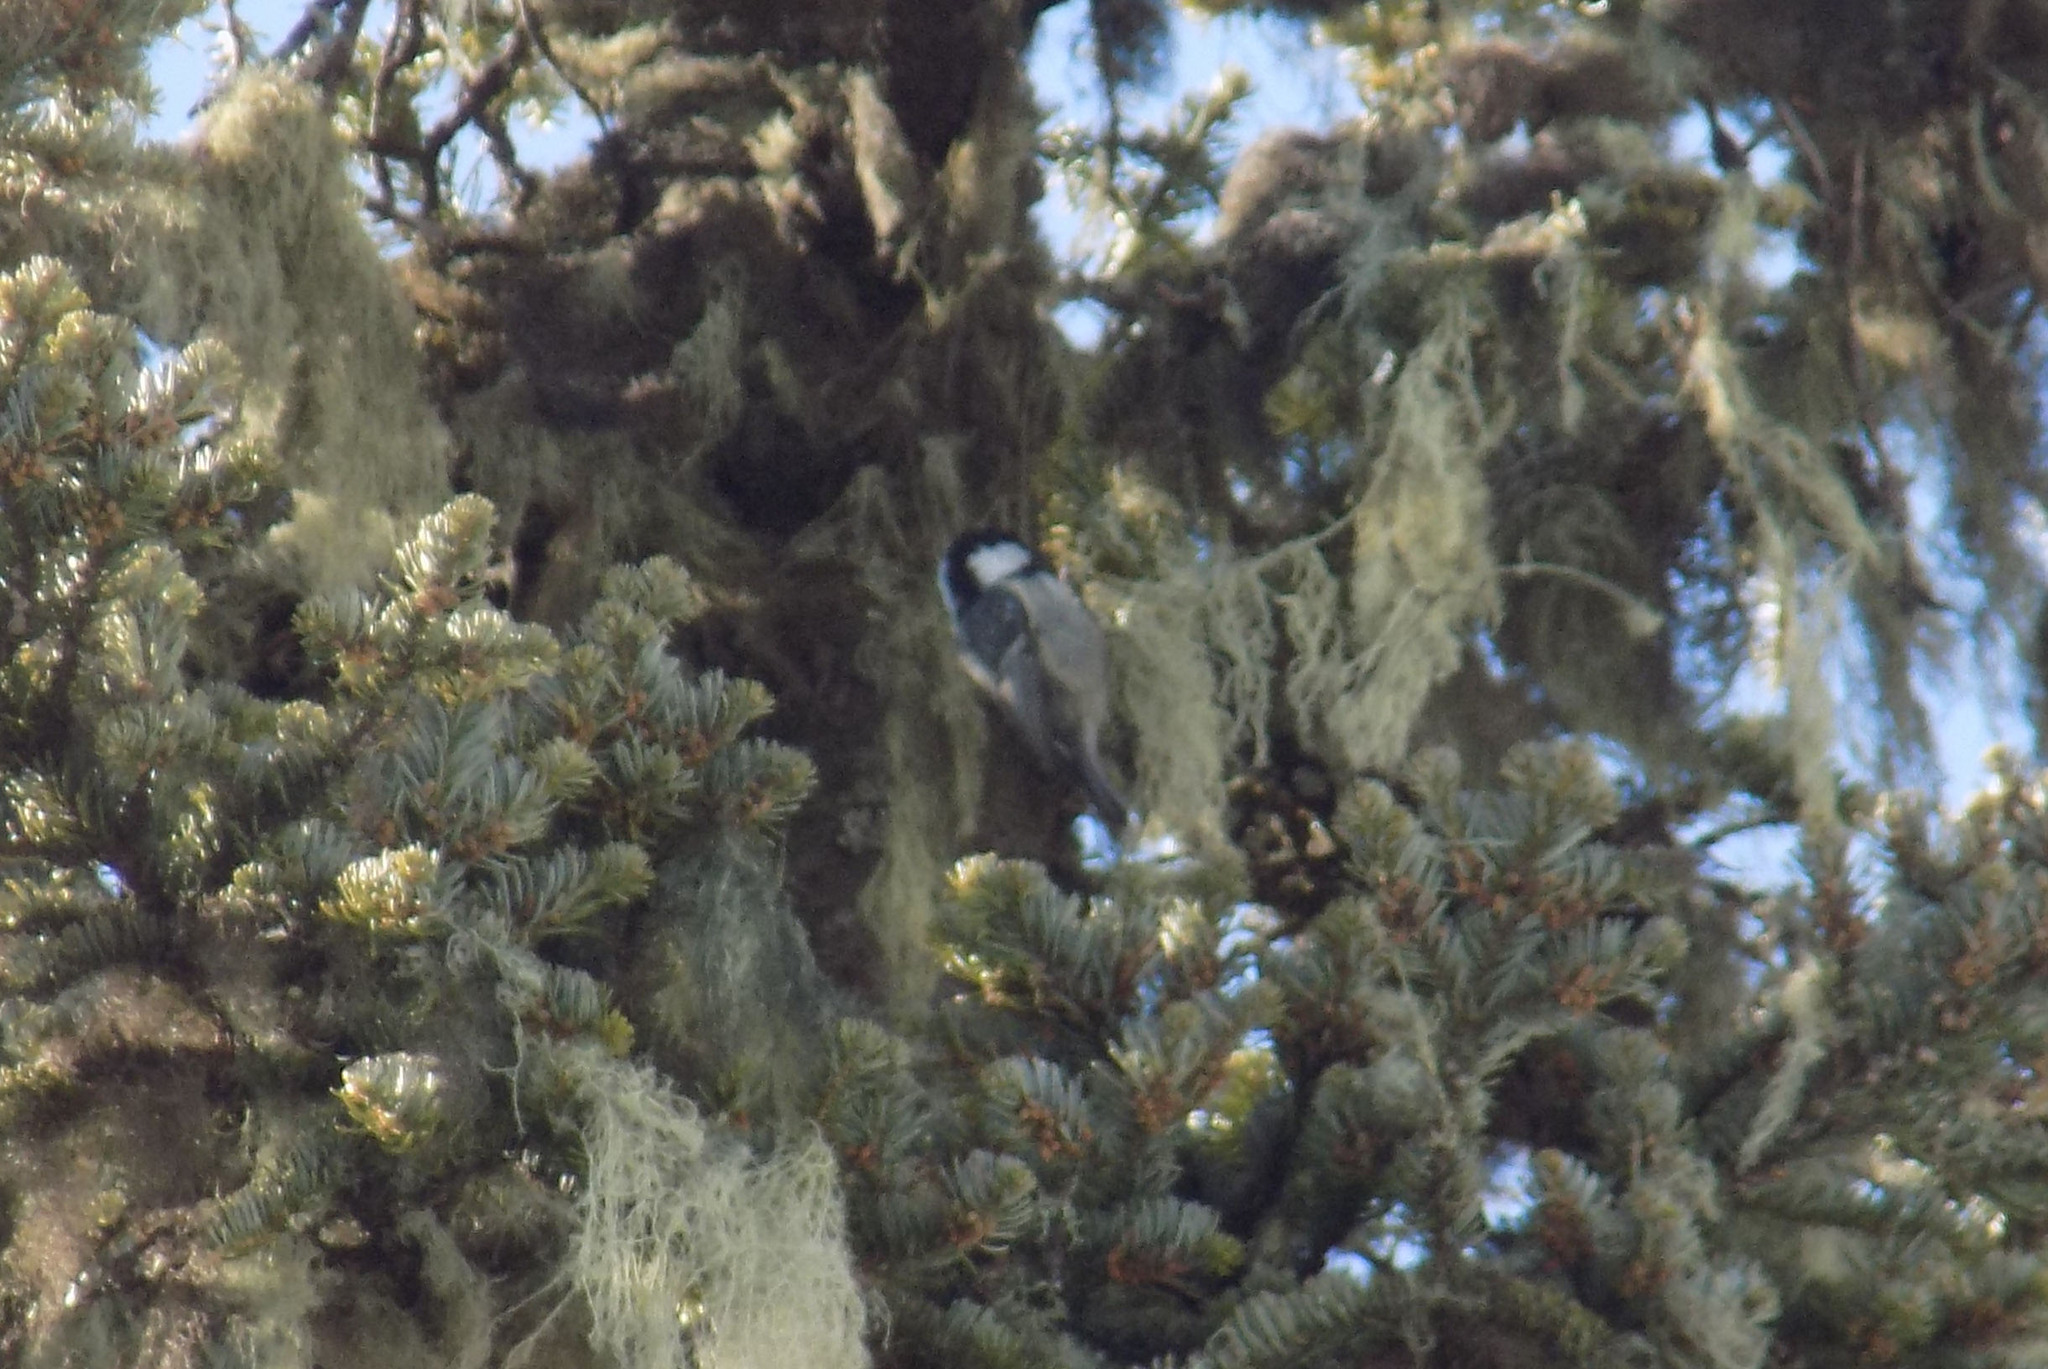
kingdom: Animalia
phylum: Chordata
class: Aves
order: Passeriformes
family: Paridae
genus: Periparus
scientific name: Periparus ater
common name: Coal tit
